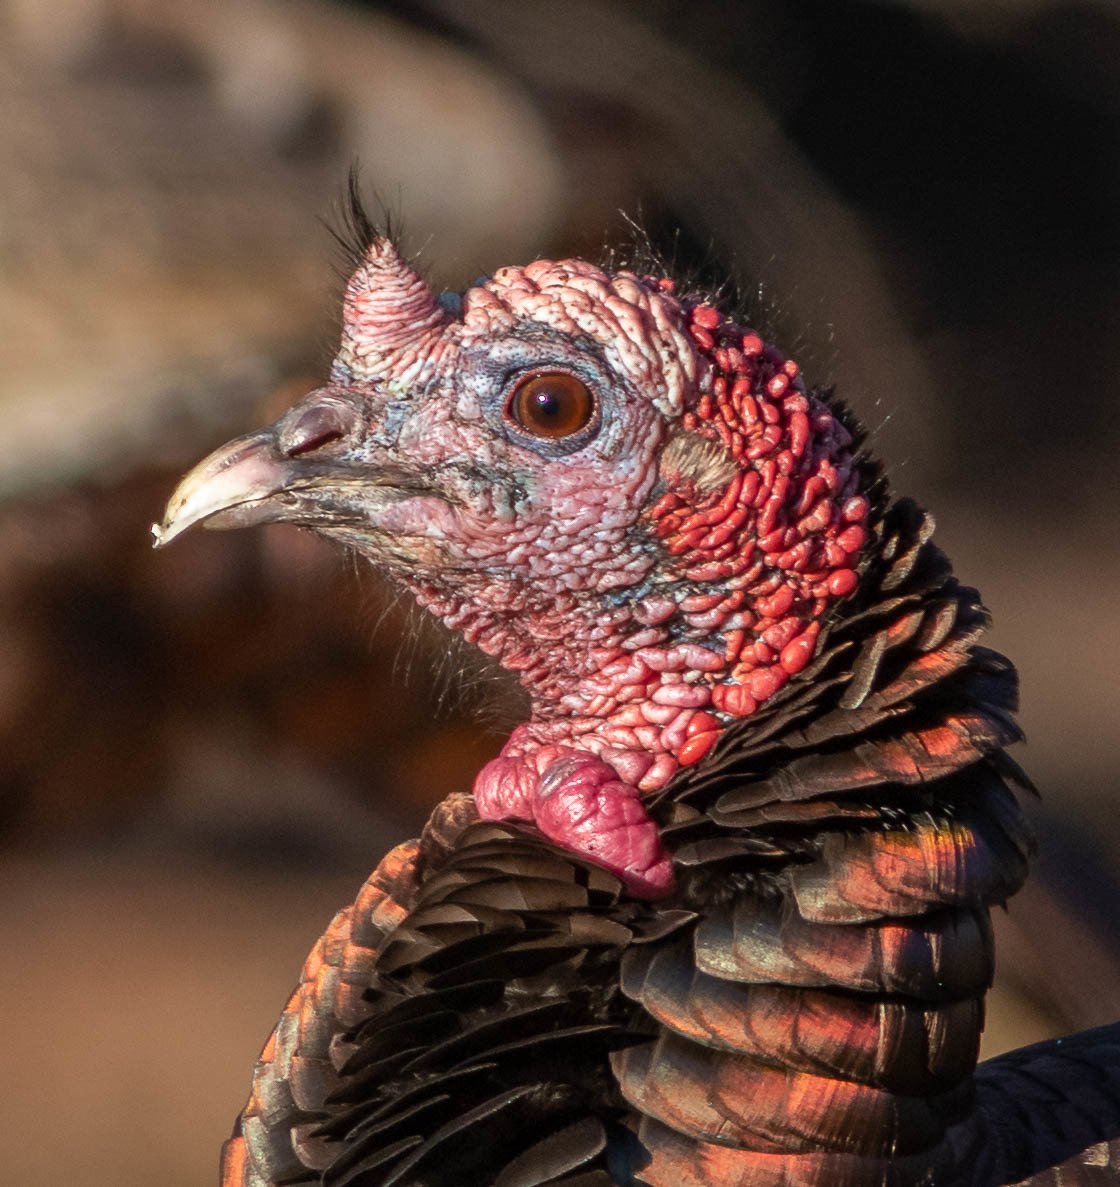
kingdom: Animalia
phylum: Chordata
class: Aves
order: Galliformes
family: Phasianidae
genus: Meleagris
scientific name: Meleagris gallopavo
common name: Wild turkey
